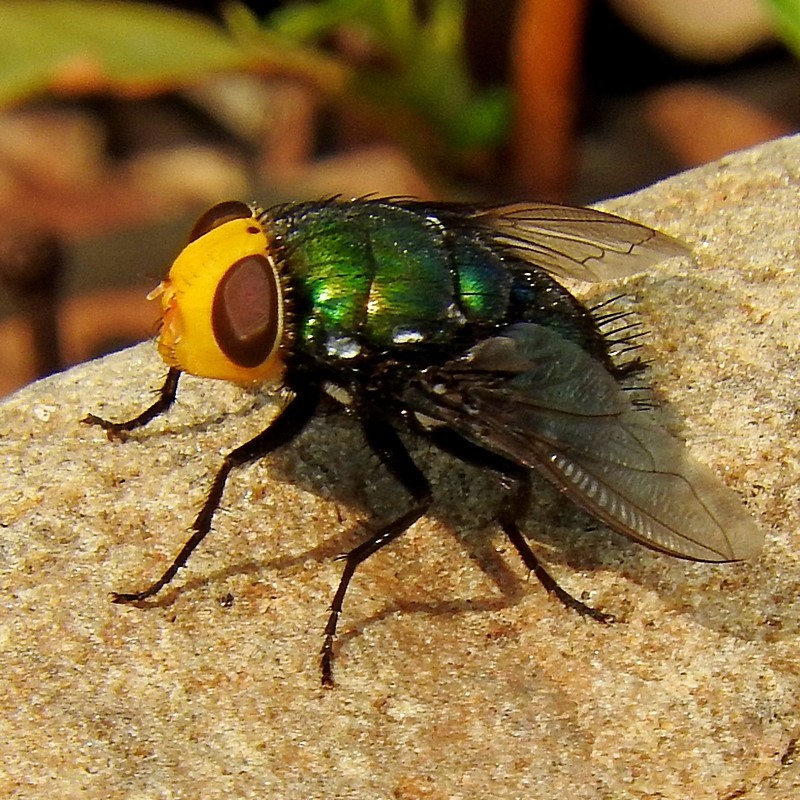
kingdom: Animalia
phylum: Arthropoda
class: Insecta
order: Diptera
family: Calliphoridae
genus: Amenia
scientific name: Amenia imperialis
